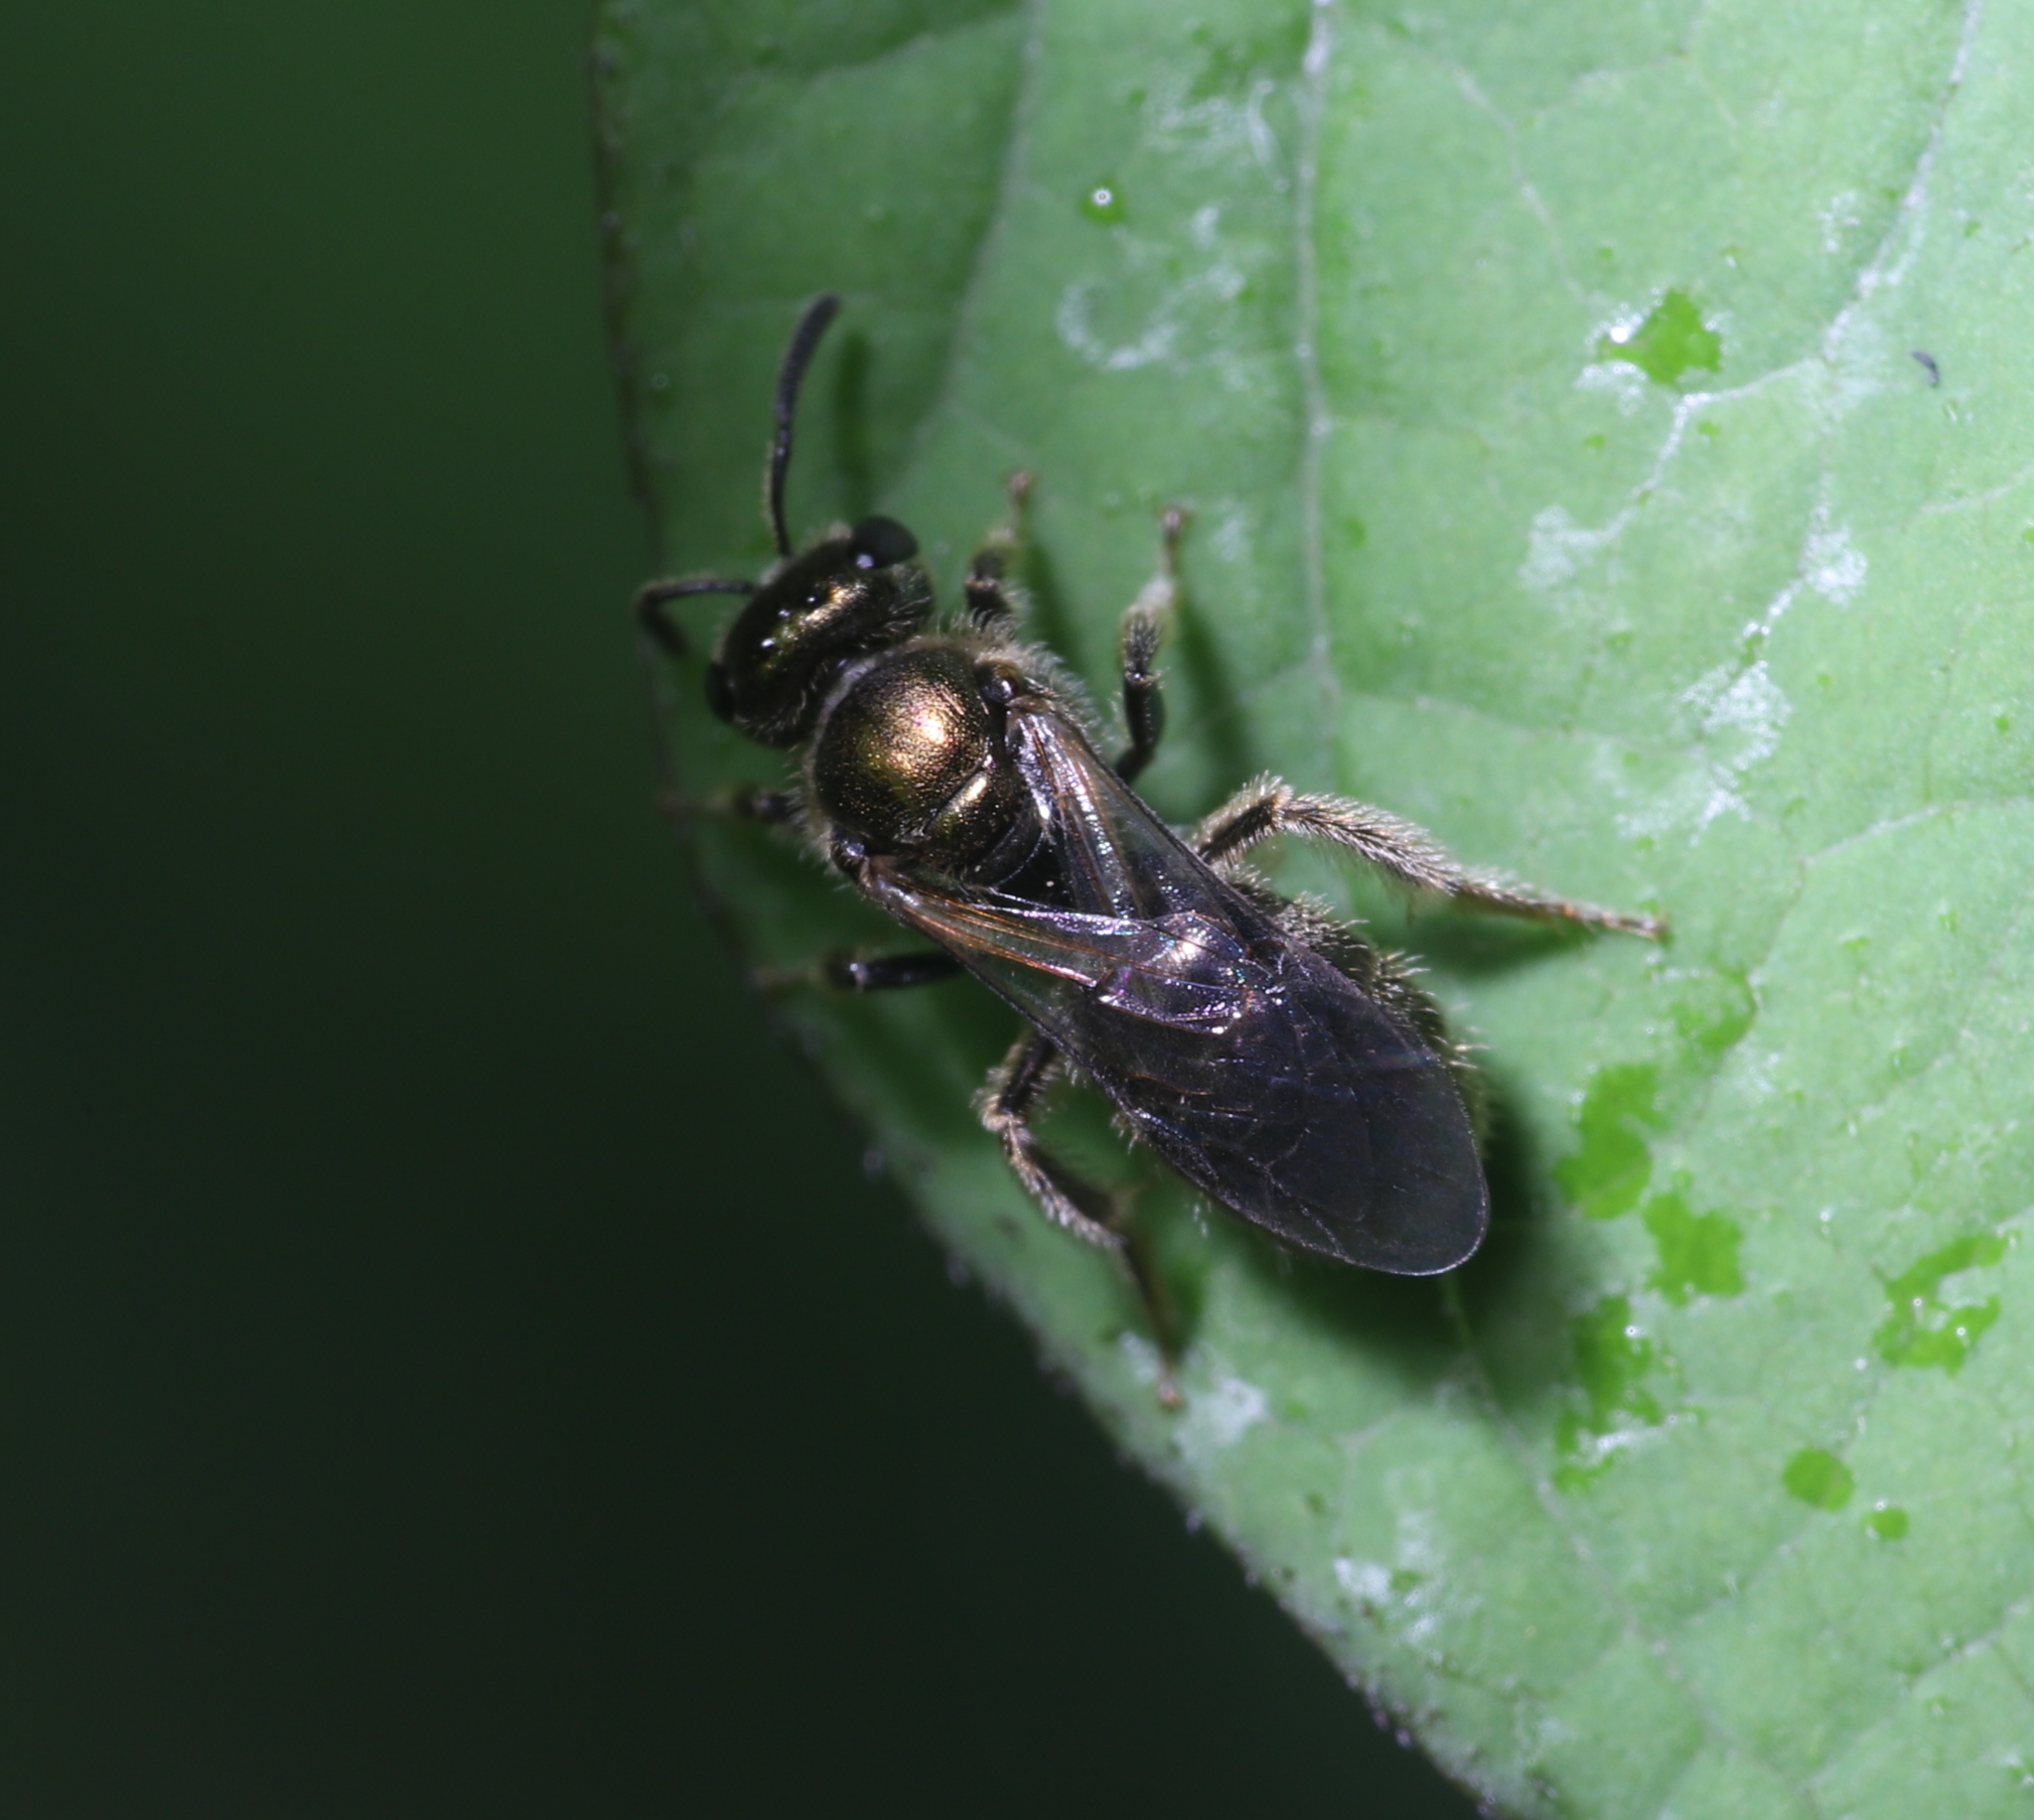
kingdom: Animalia
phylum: Arthropoda
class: Insecta
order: Hymenoptera
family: Halictidae
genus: Dialictus
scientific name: Dialictus
